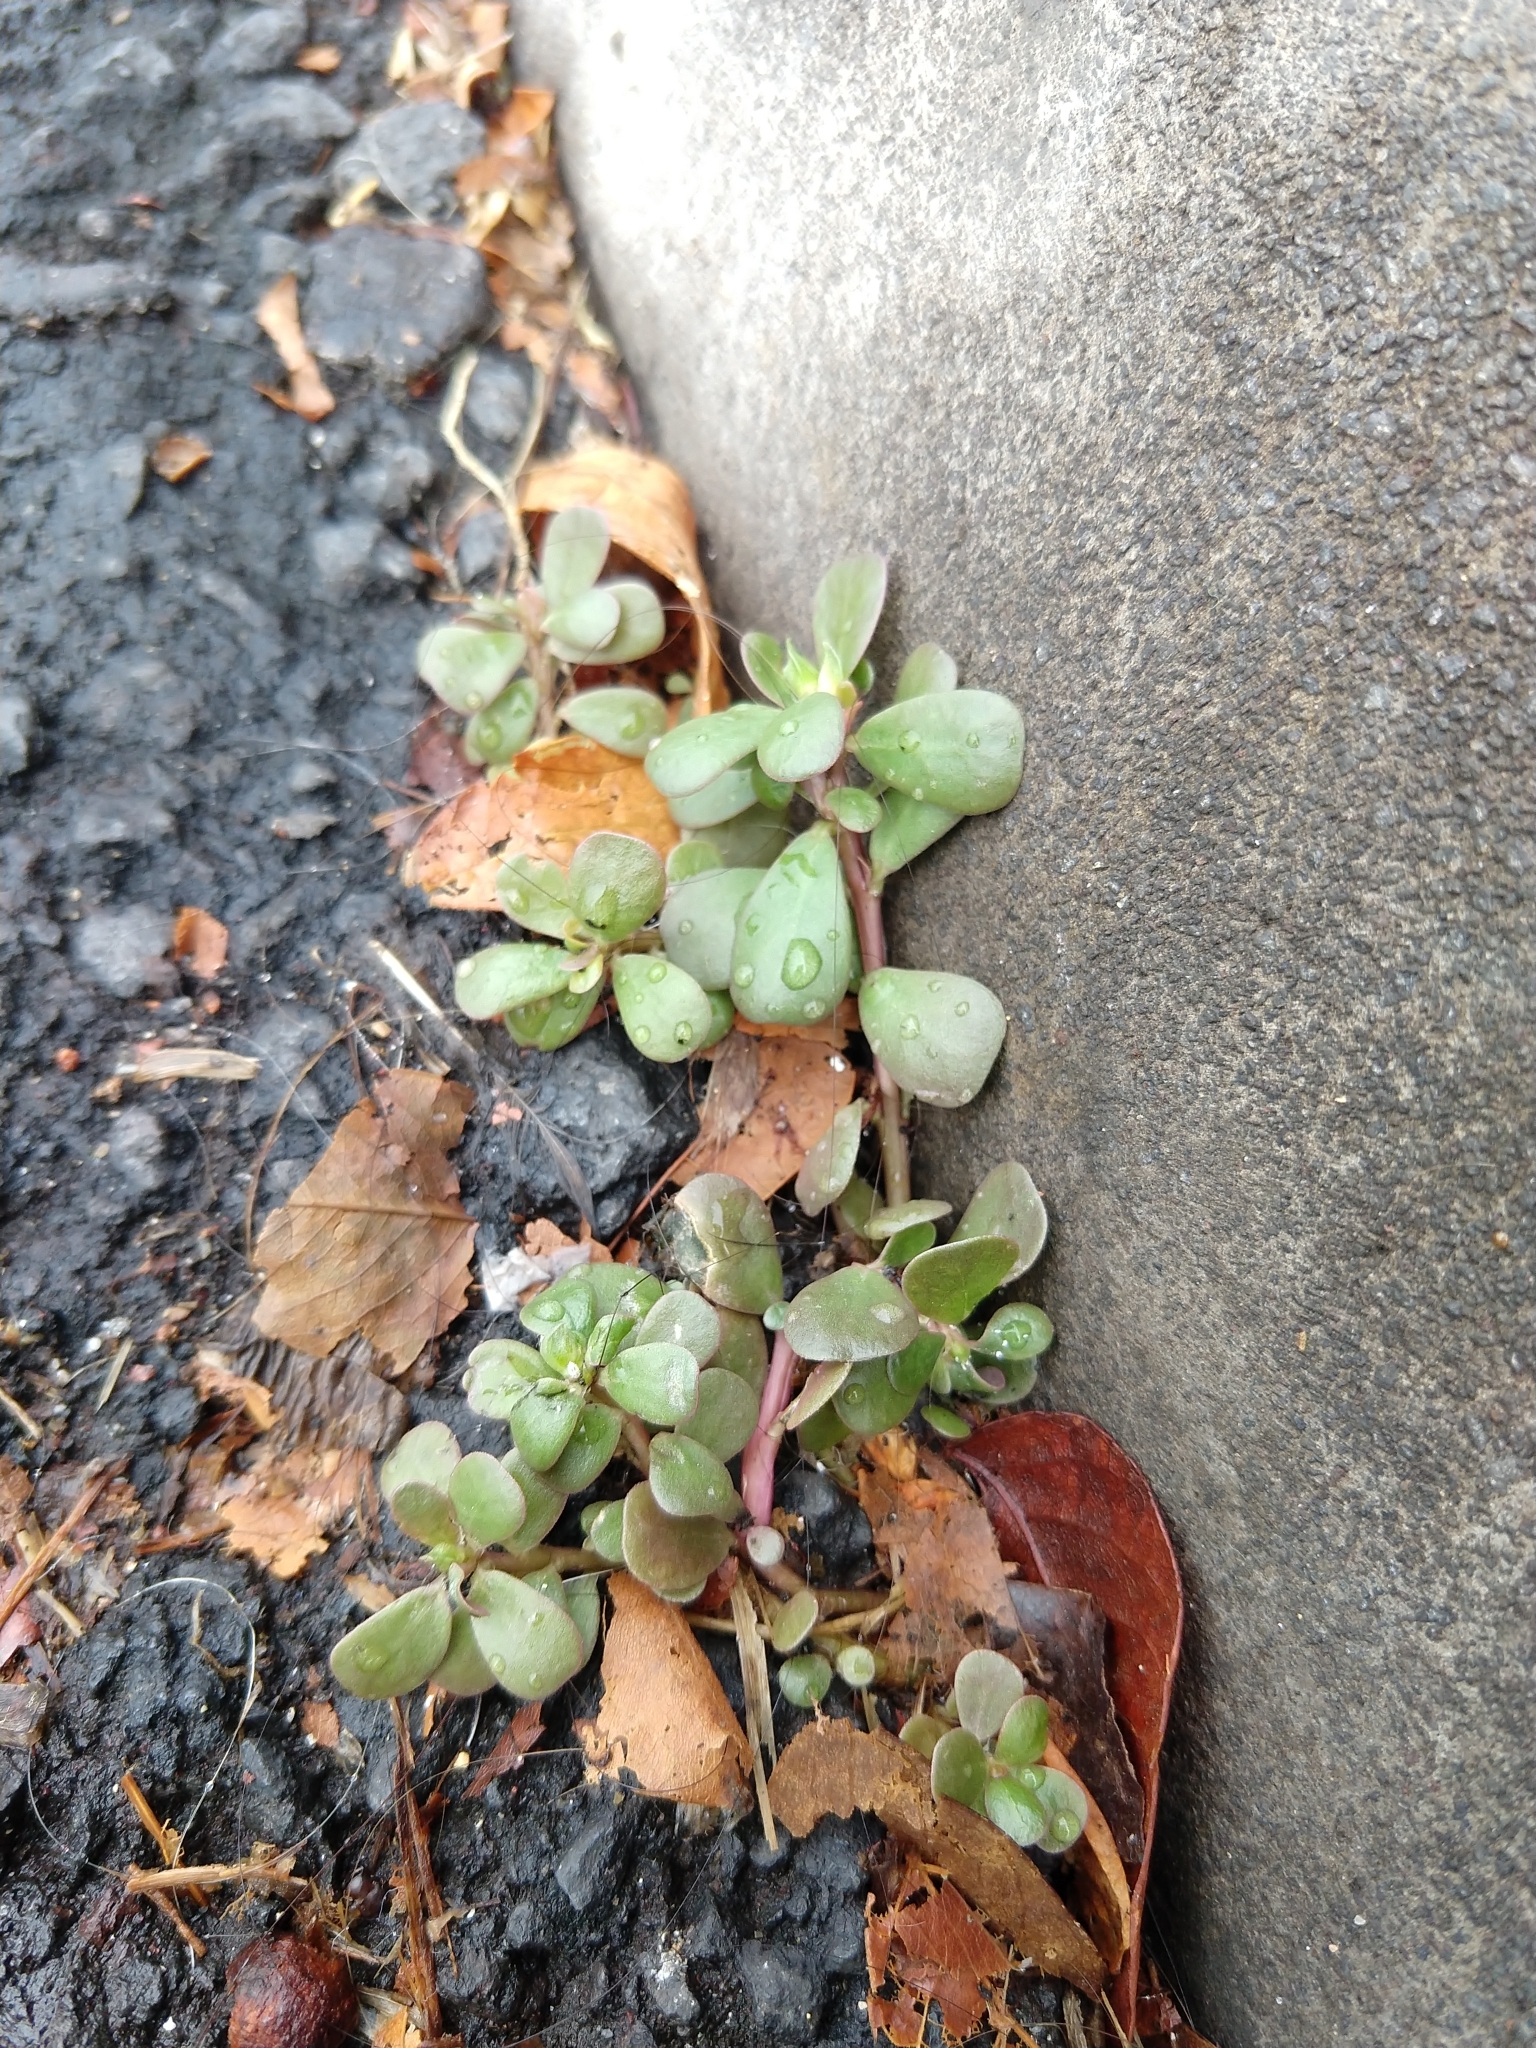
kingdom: Plantae
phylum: Tracheophyta
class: Magnoliopsida
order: Caryophyllales
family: Portulacaceae
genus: Portulaca
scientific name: Portulaca oleracea
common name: Common purslane
